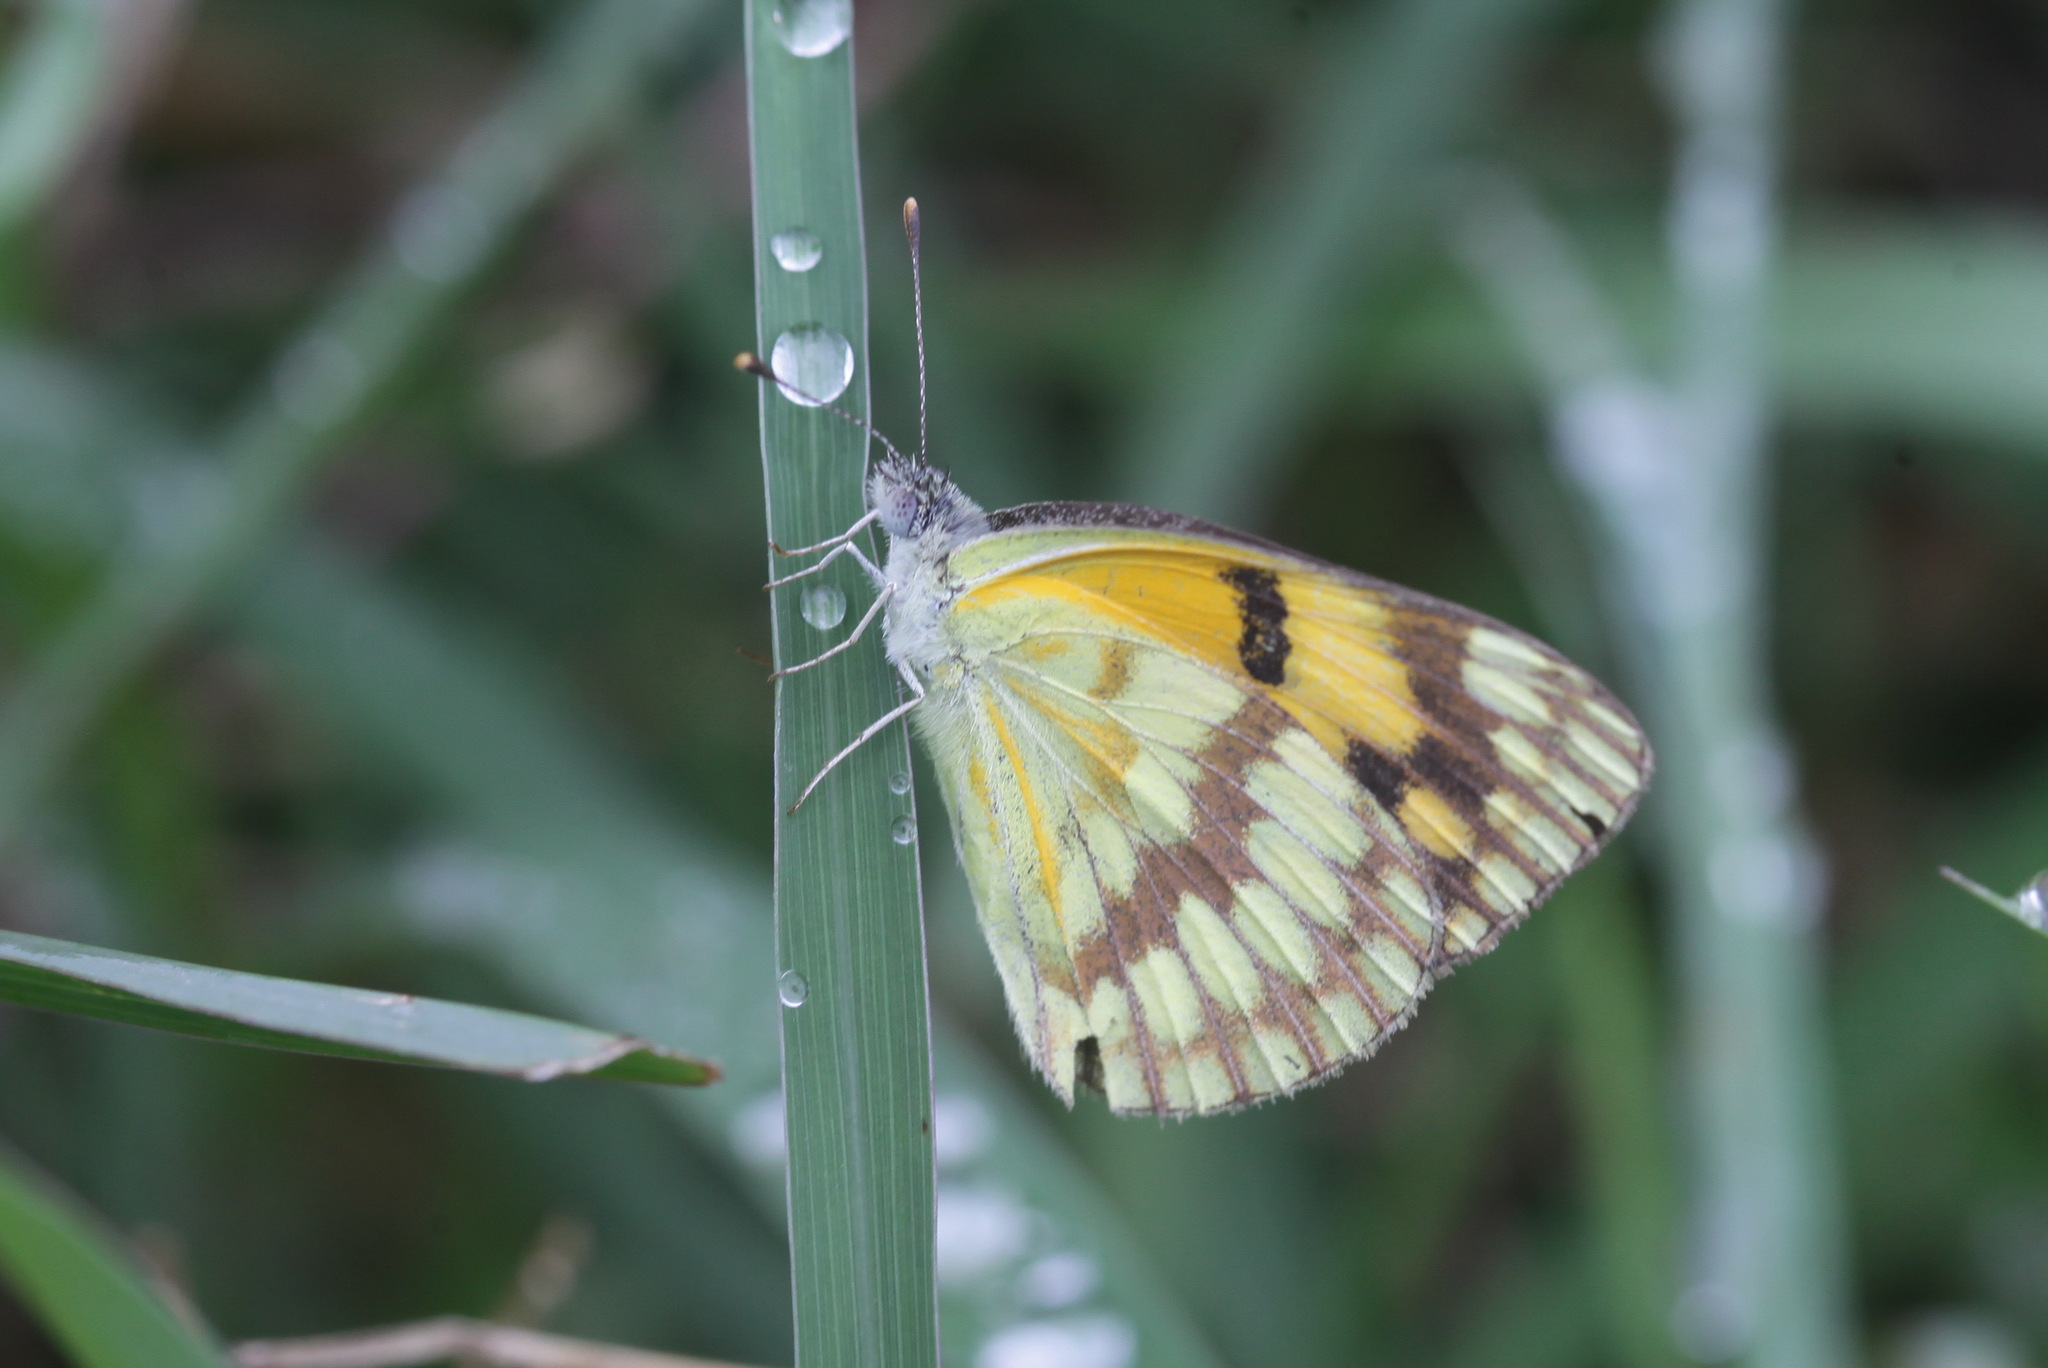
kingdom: Animalia
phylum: Arthropoda
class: Insecta
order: Lepidoptera
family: Pieridae
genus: Colotis
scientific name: Colotis vesta
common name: Veined golden arab
